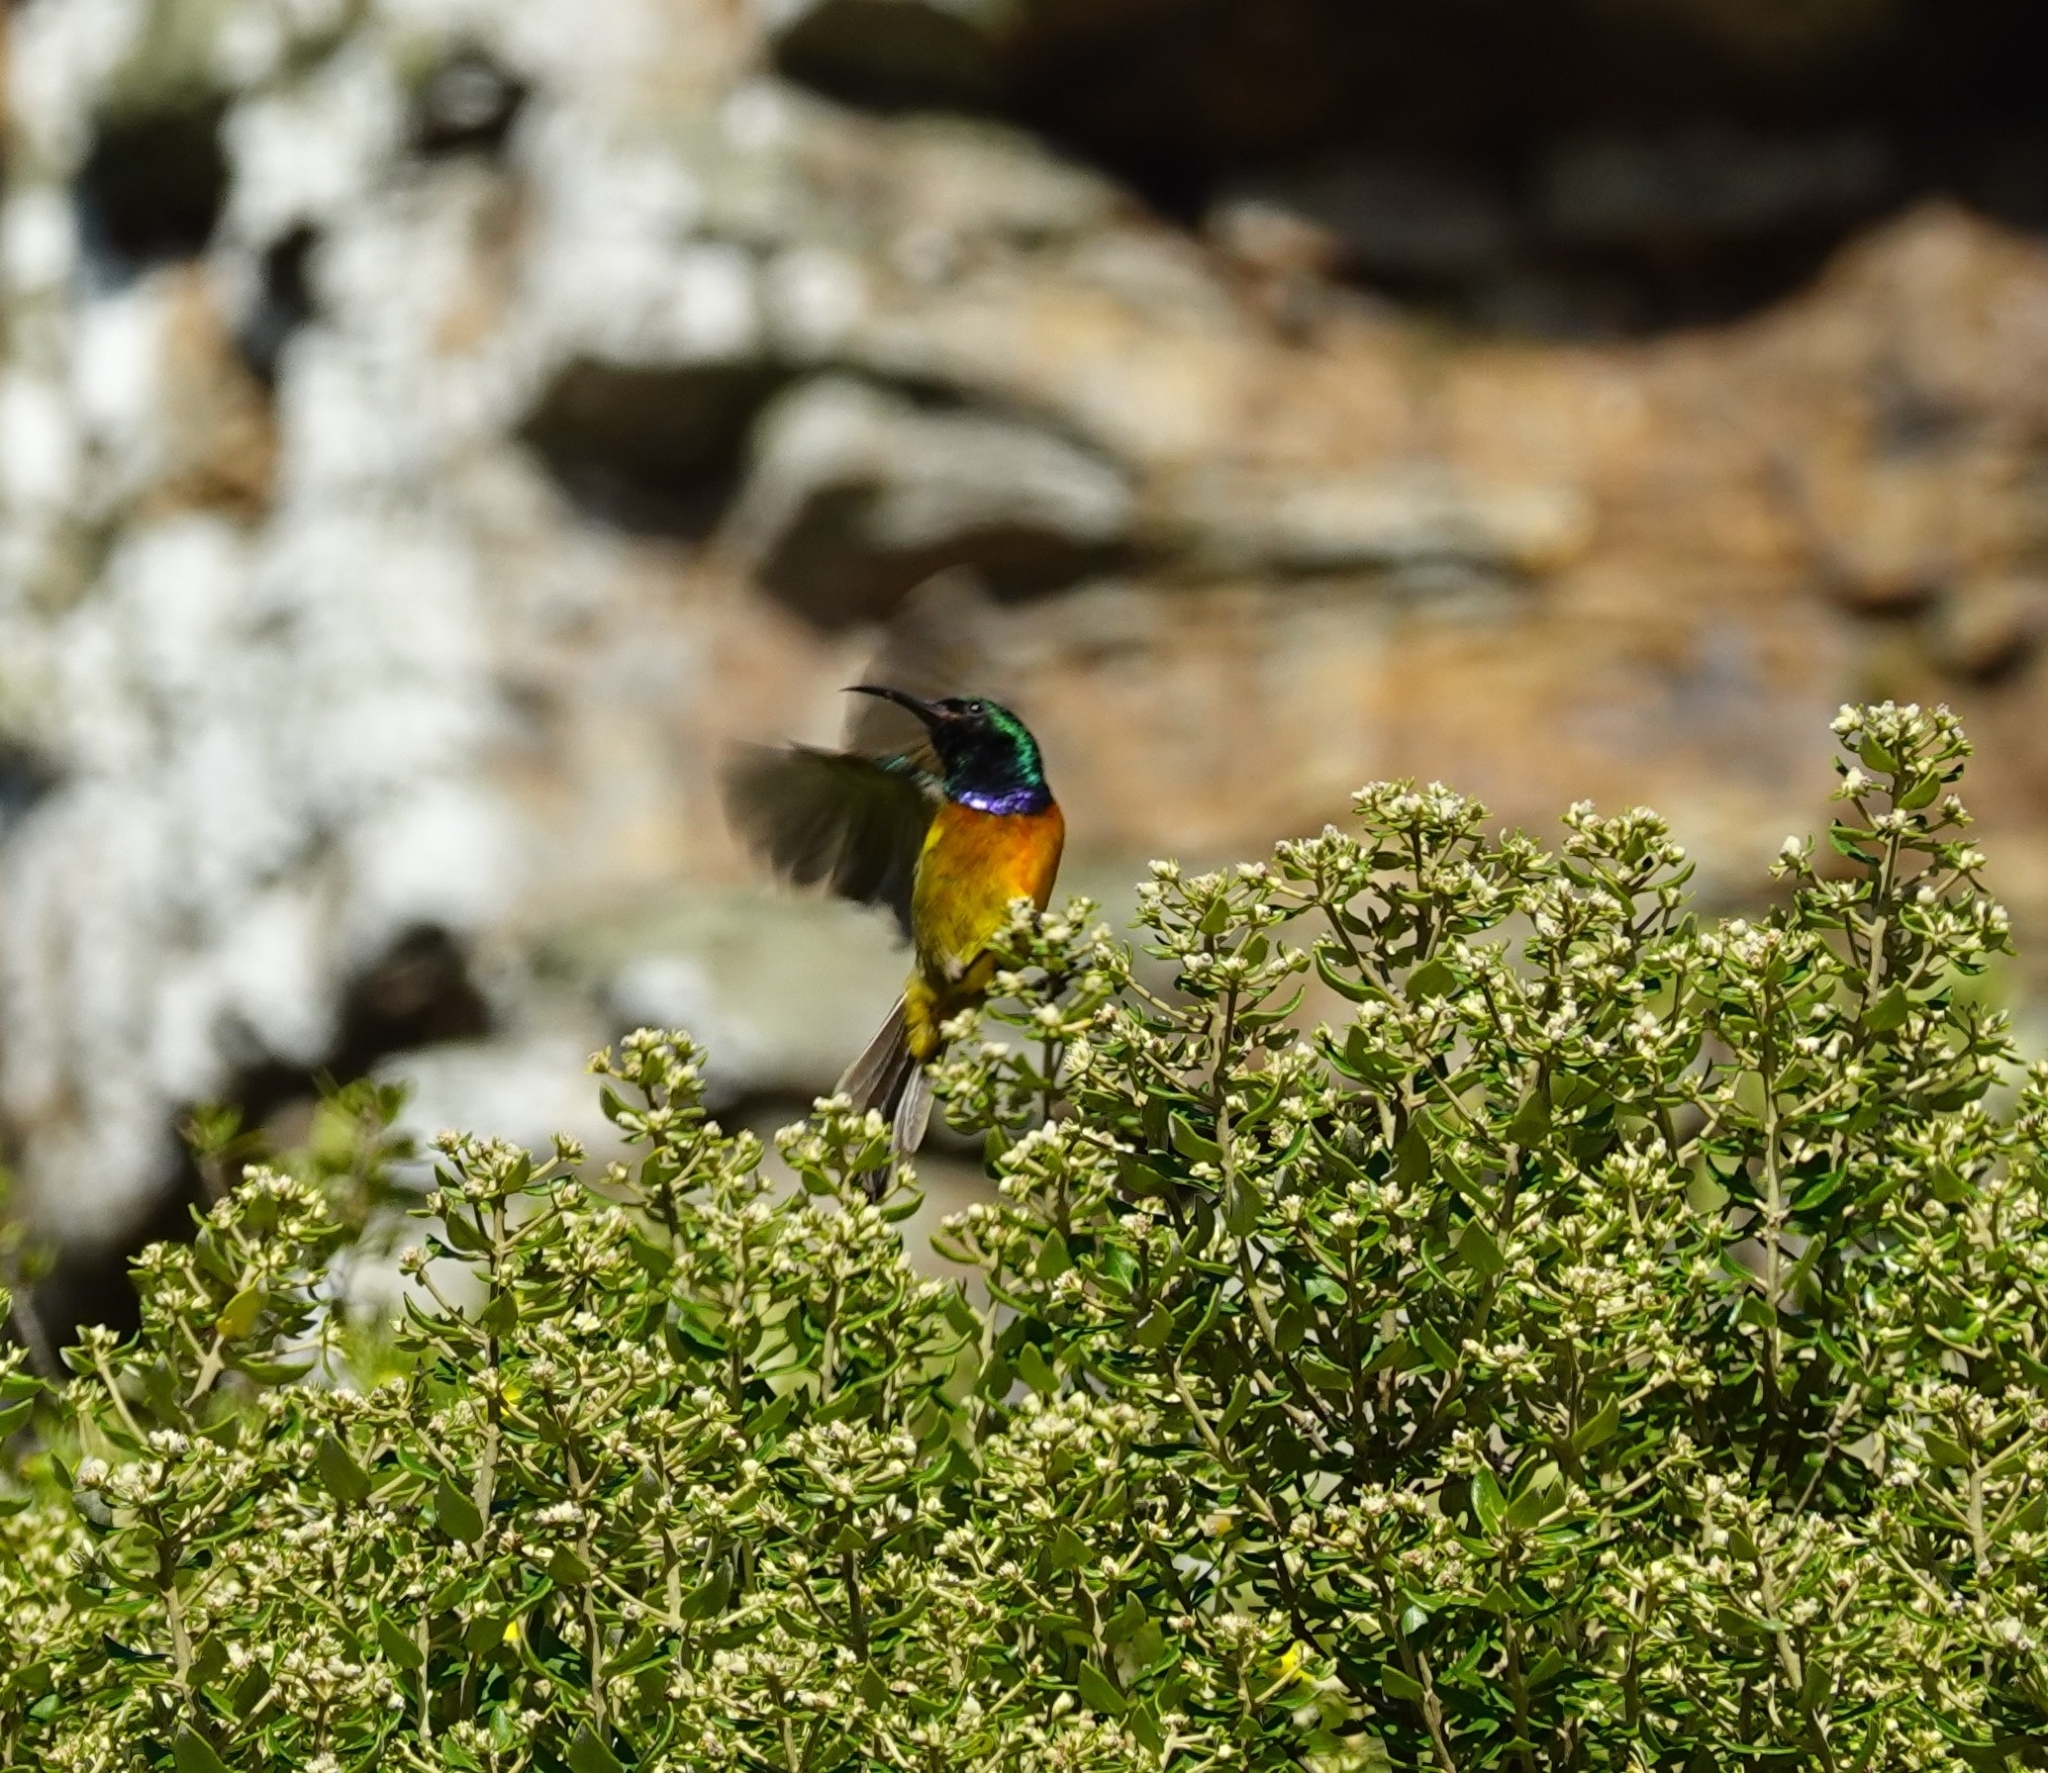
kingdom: Animalia
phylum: Chordata
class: Aves
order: Passeriformes
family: Nectariniidae
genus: Anthobaphes
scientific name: Anthobaphes violacea
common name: Orange-breasted sunbird
